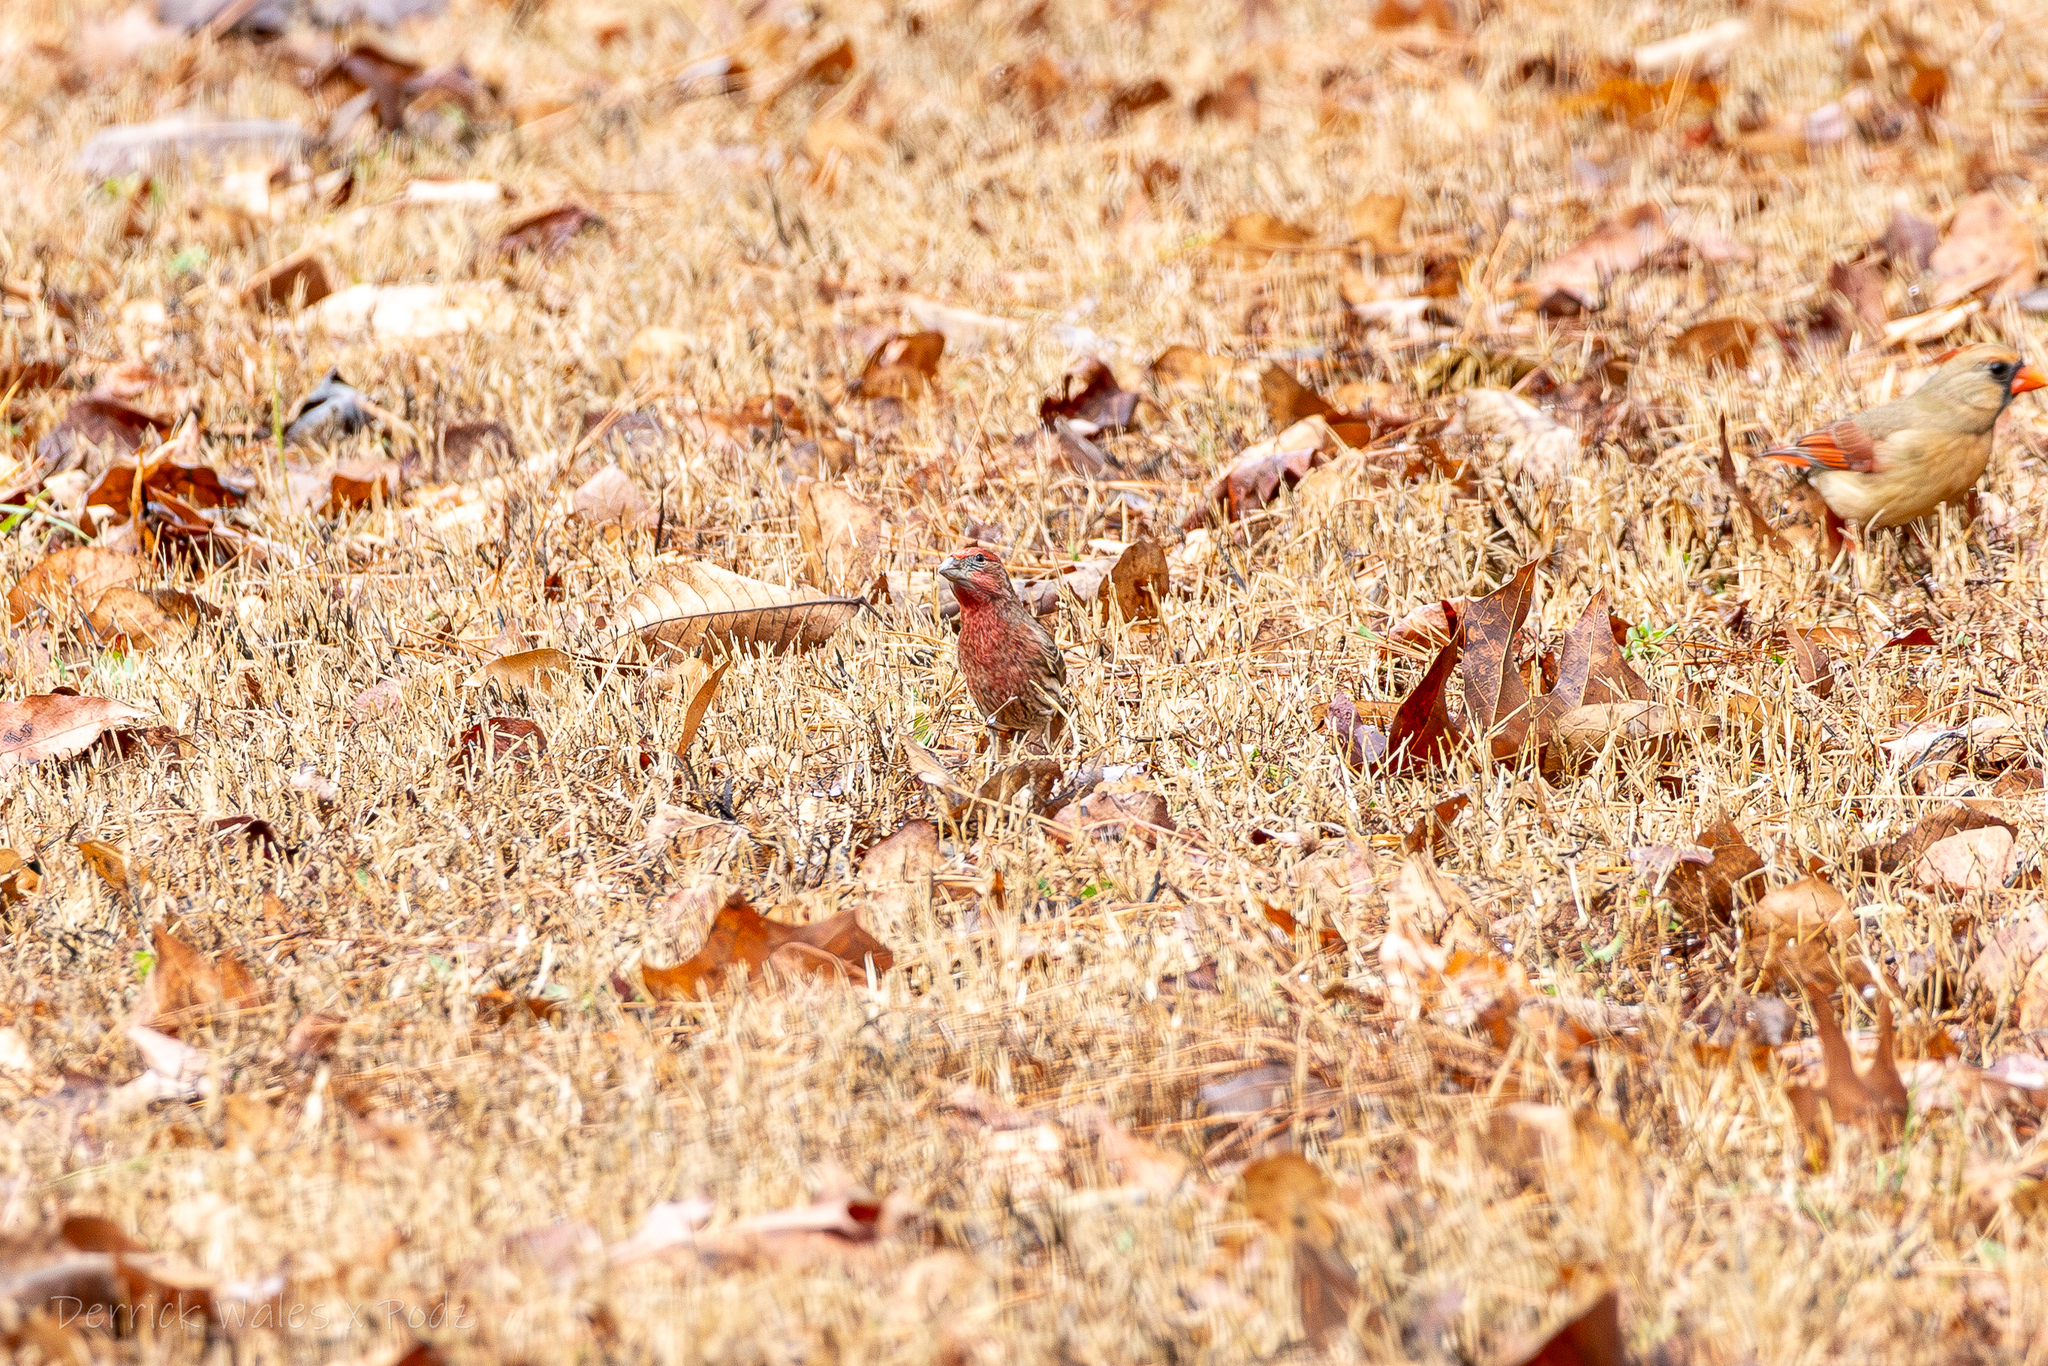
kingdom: Animalia
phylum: Chordata
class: Aves
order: Passeriformes
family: Fringillidae
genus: Haemorhous
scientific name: Haemorhous mexicanus
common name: House finch
